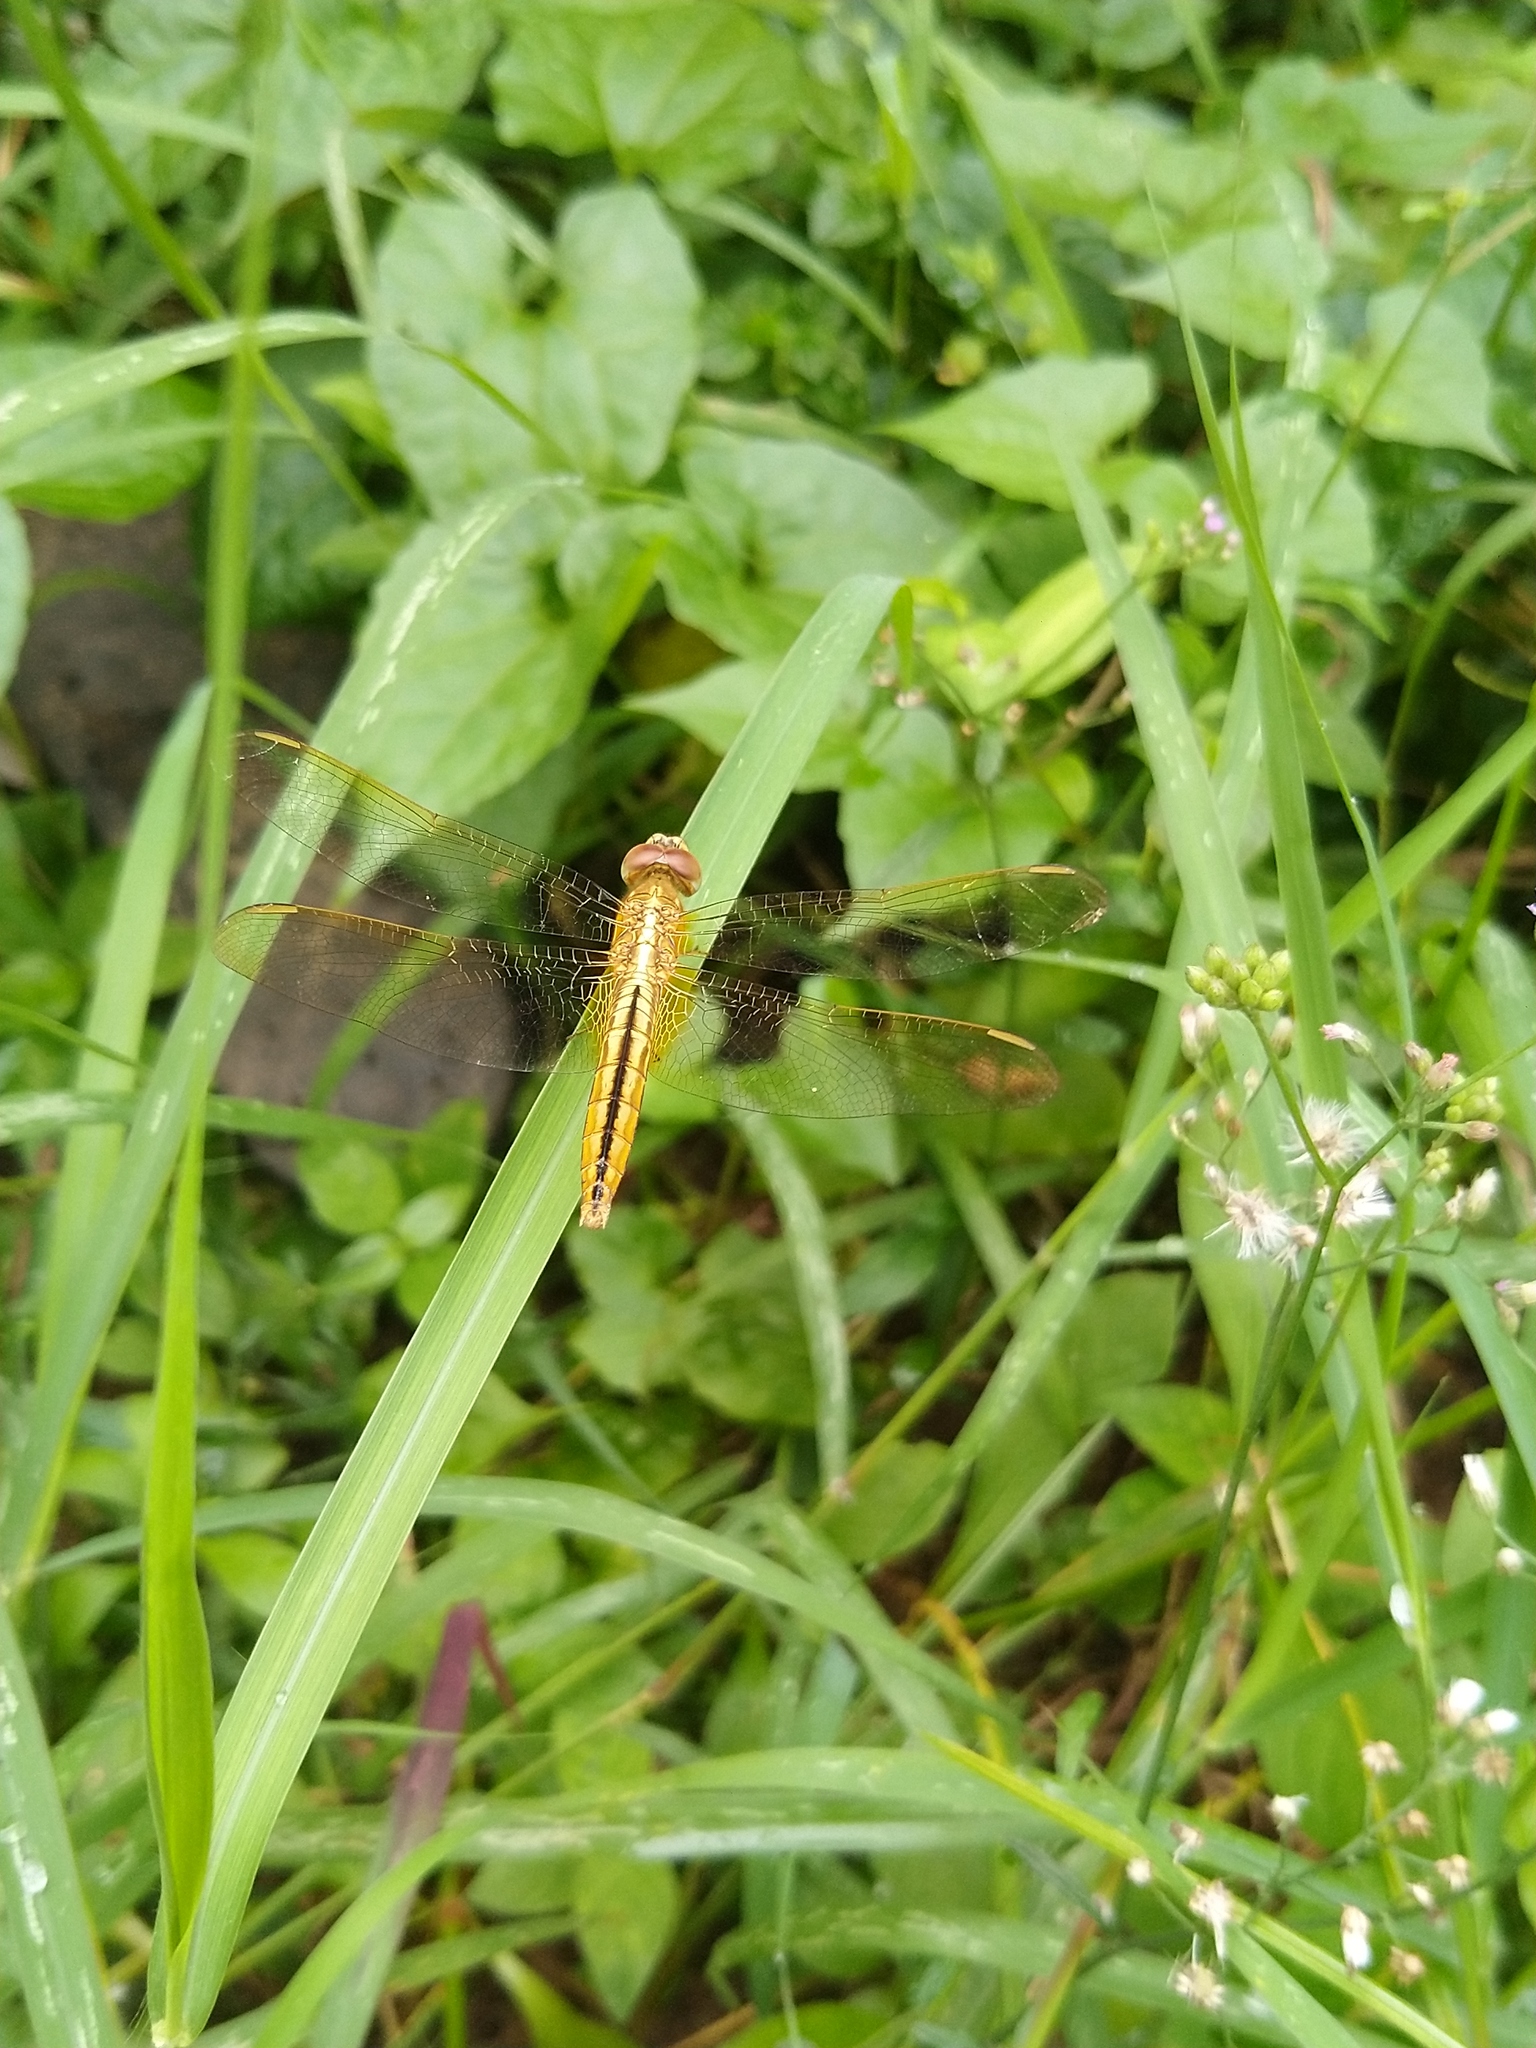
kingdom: Animalia
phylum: Arthropoda
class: Insecta
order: Odonata
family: Libellulidae
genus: Crocothemis
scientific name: Crocothemis servilia
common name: Scarlet skimmer
